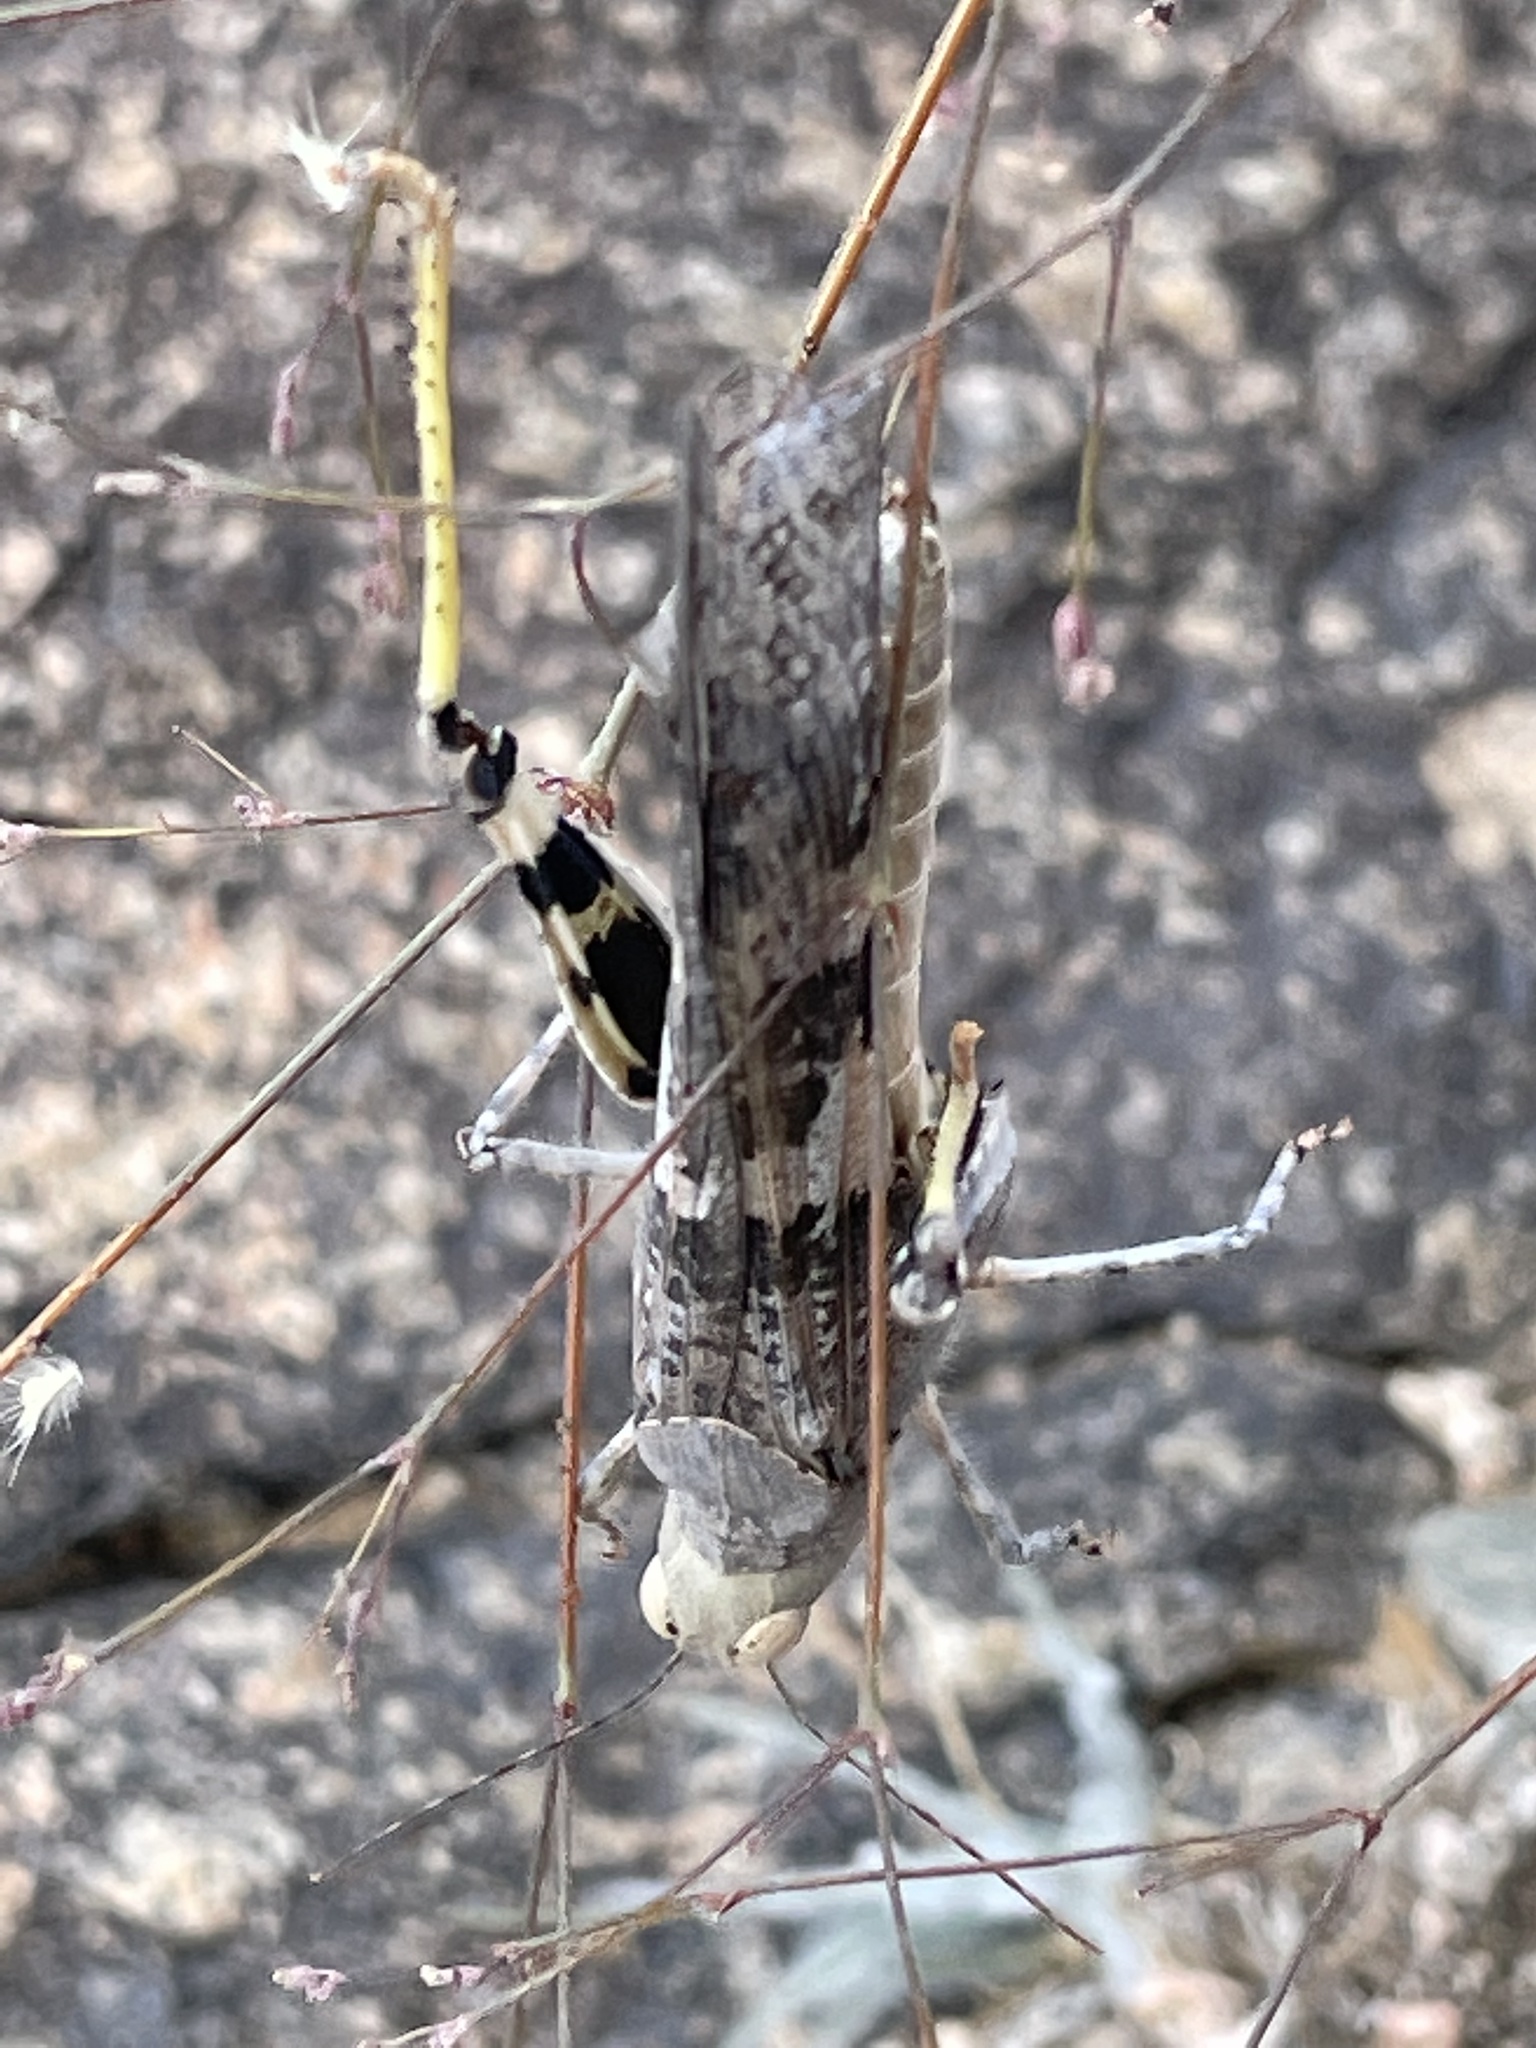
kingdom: Animalia
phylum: Arthropoda
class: Insecta
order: Orthoptera
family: Acrididae
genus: Trimerotropis
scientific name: Trimerotropis pallidipennis
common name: Pallid-winged grasshopper
